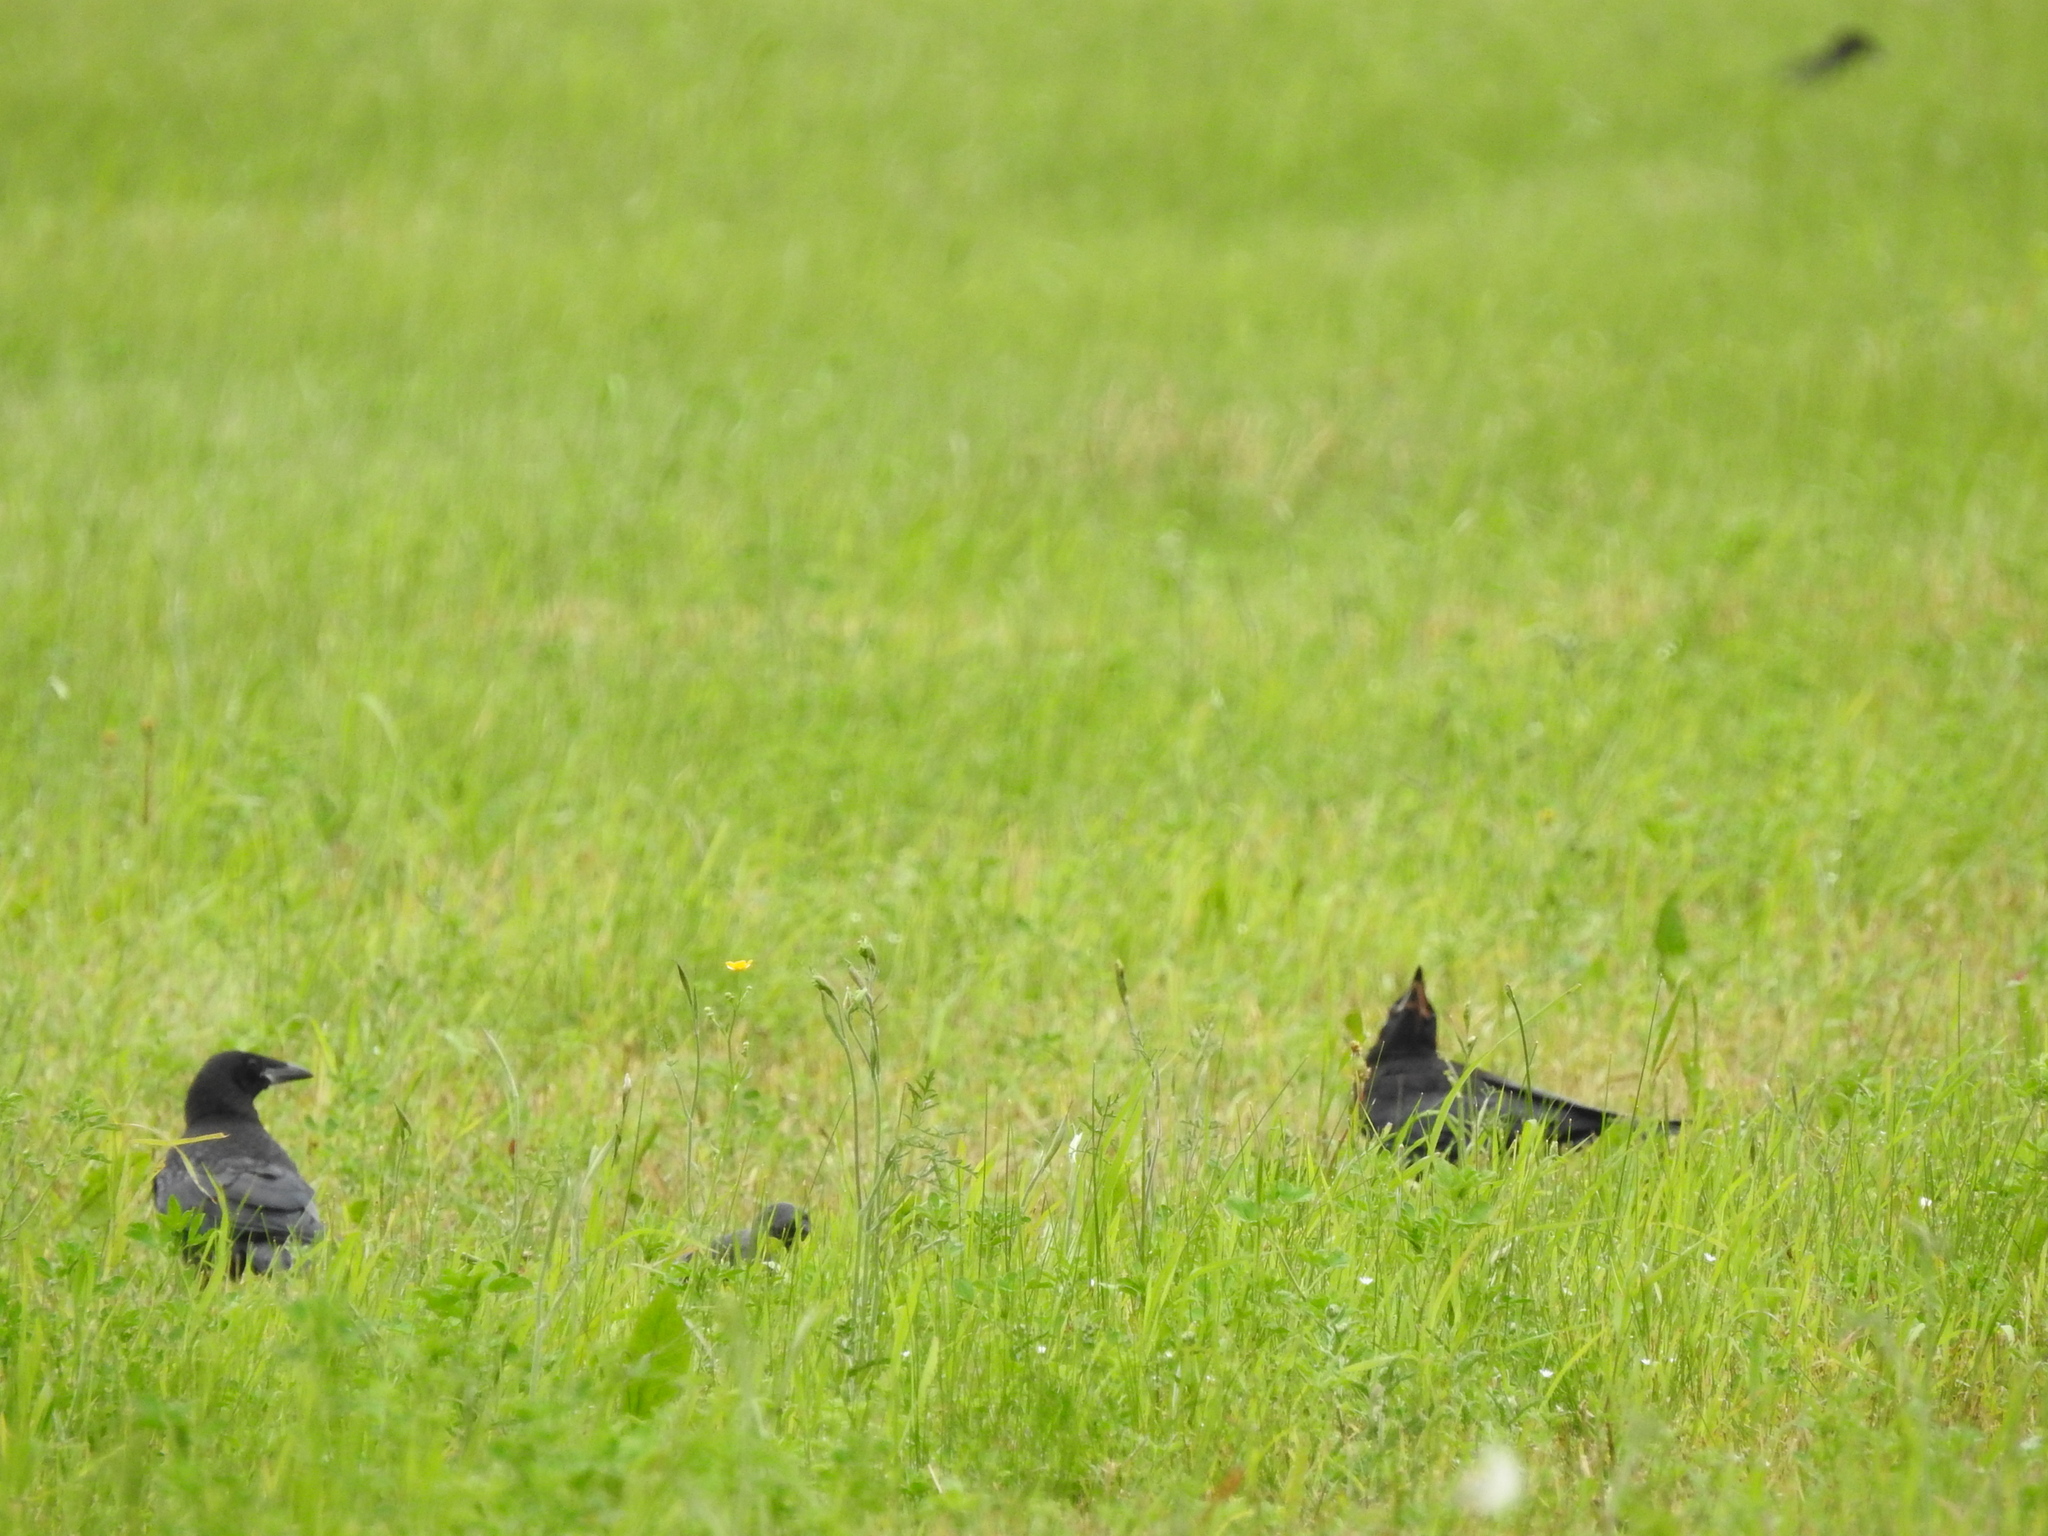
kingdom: Animalia
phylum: Chordata
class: Aves
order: Passeriformes
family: Corvidae
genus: Corvus
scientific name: Corvus frugilegus
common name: Rook
